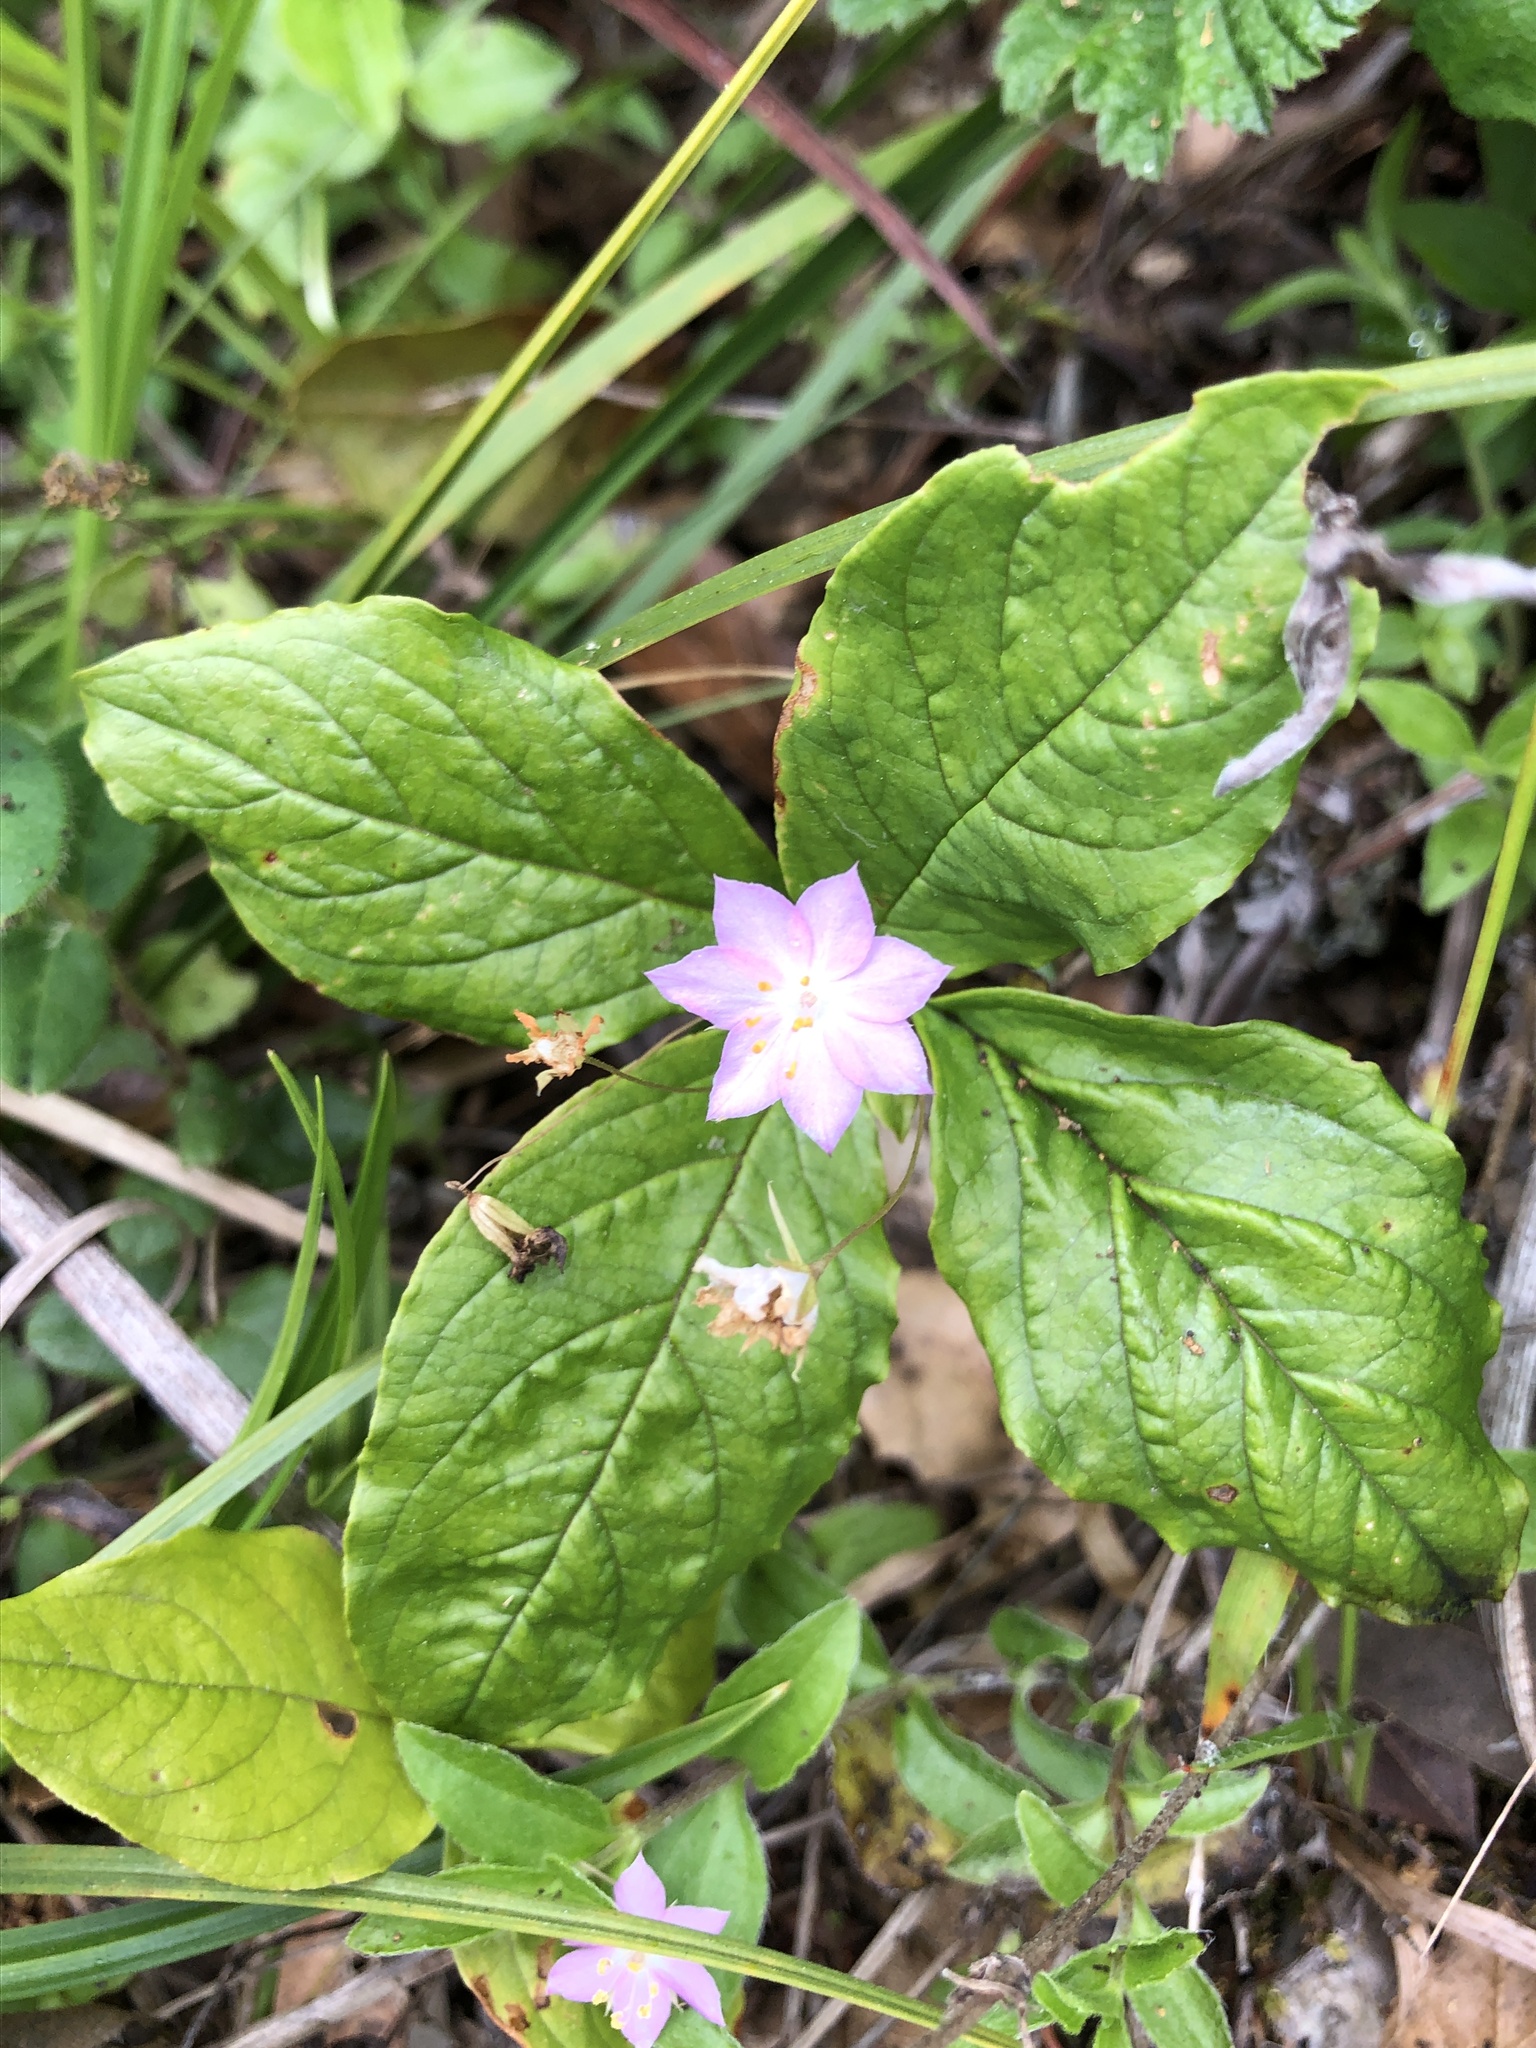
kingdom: Plantae
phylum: Tracheophyta
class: Magnoliopsida
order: Ericales
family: Primulaceae
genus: Lysimachia
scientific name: Lysimachia latifolia
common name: Pacific starflower
